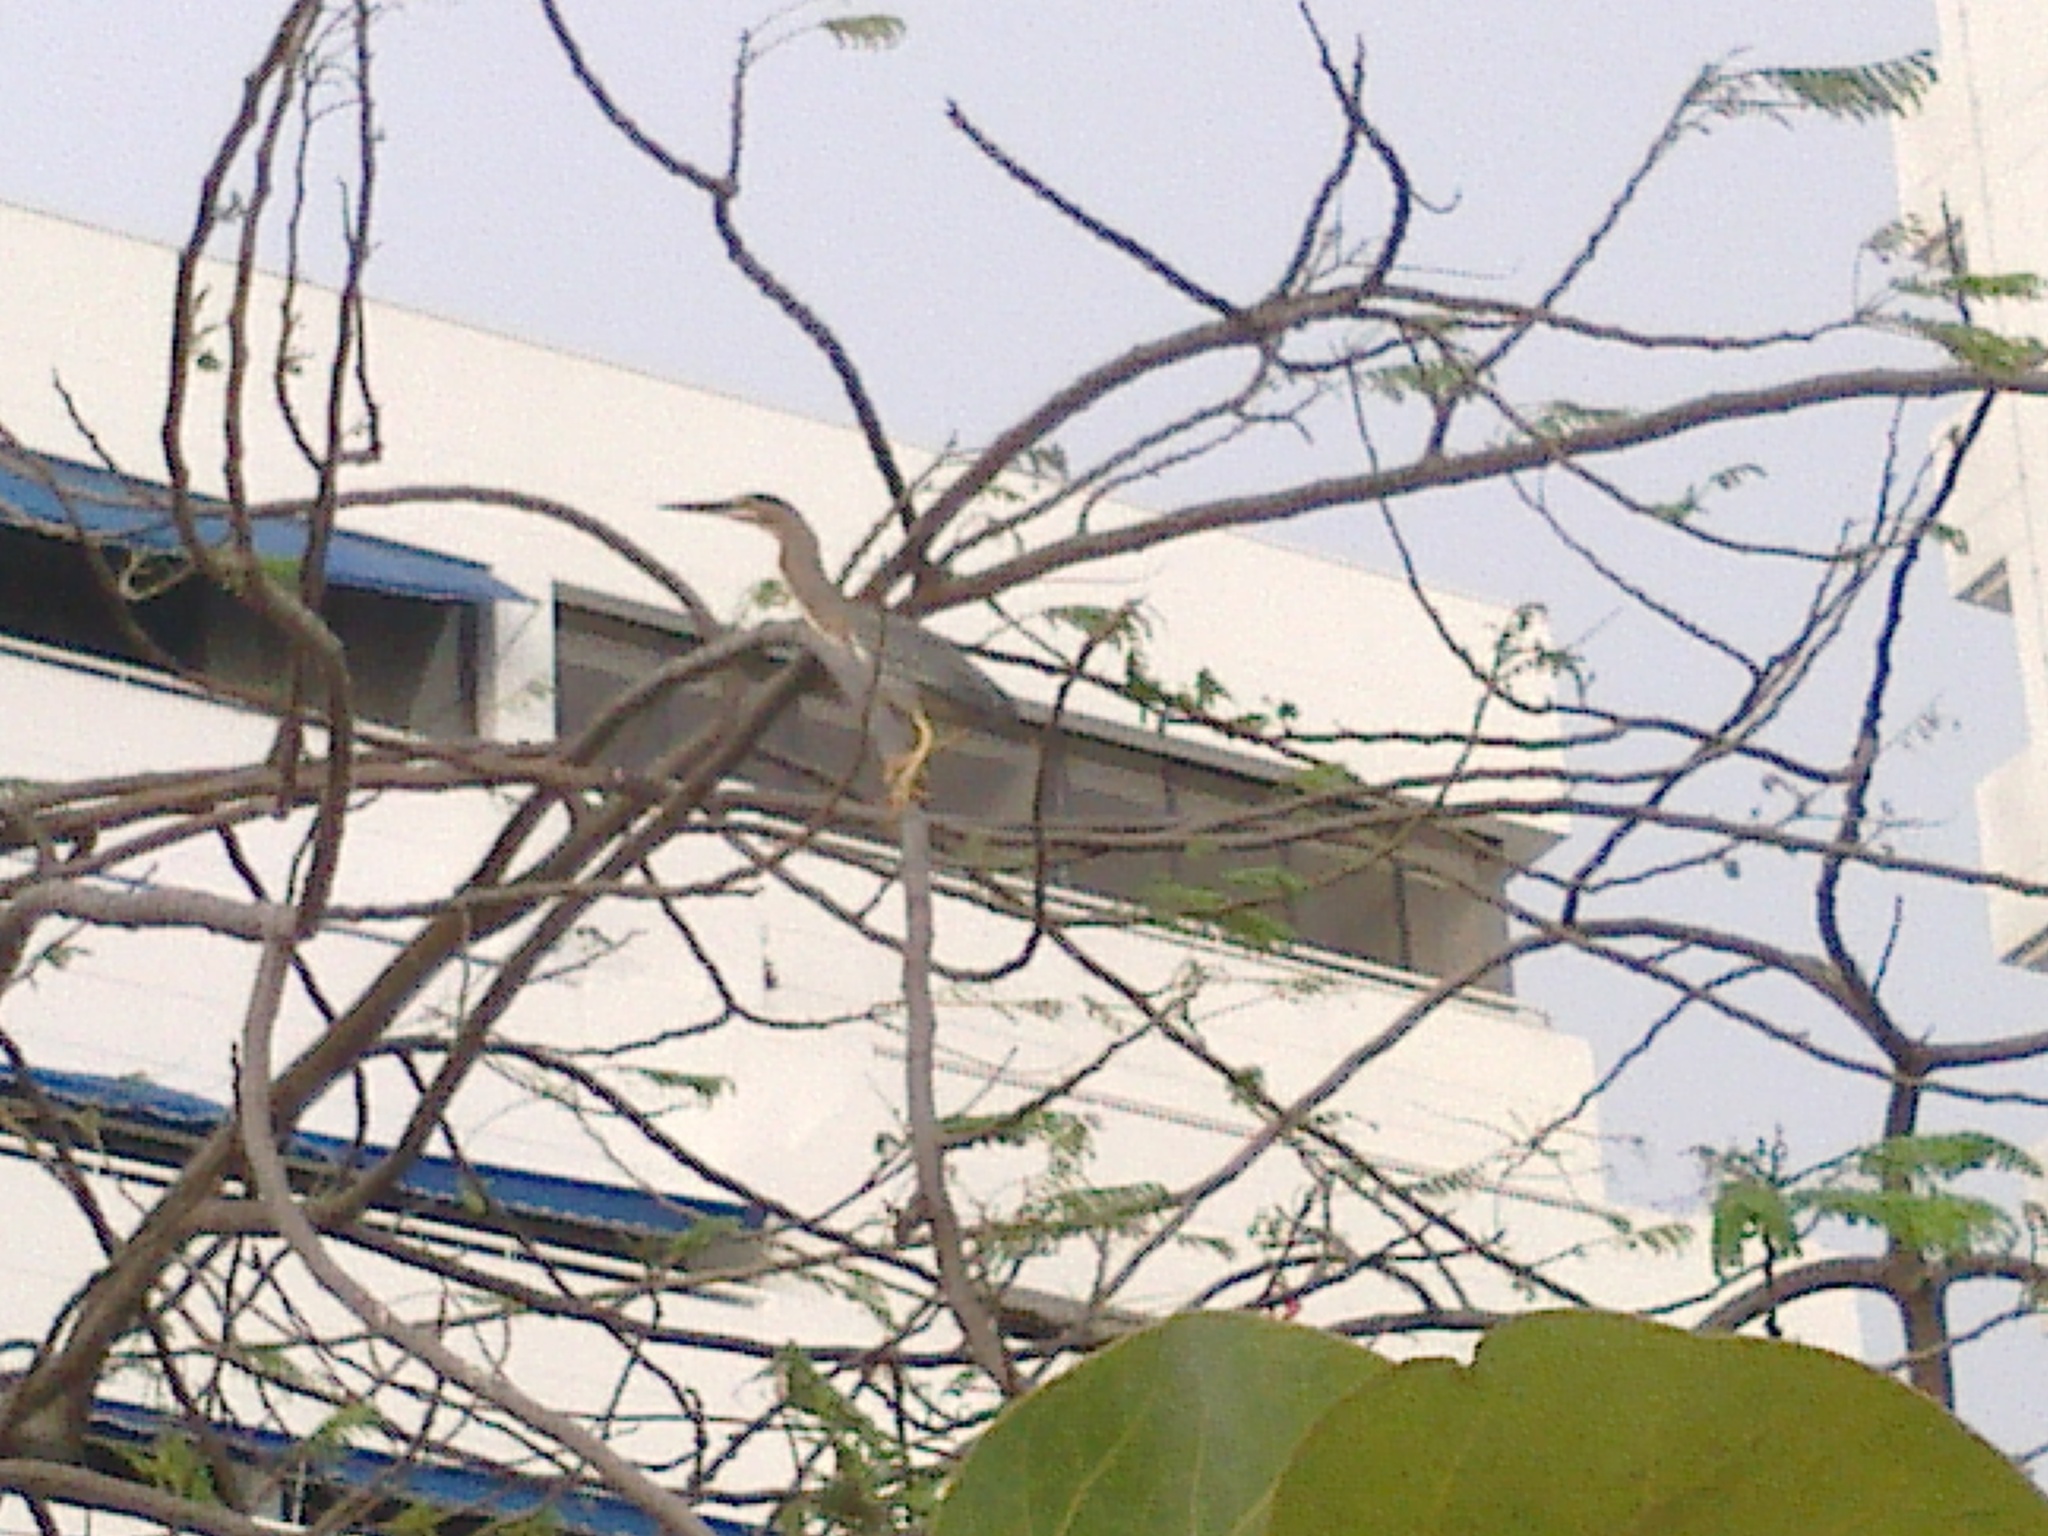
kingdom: Animalia
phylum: Chordata
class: Aves
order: Pelecaniformes
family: Ardeidae
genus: Butorides
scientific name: Butorides striata
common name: Striated heron
